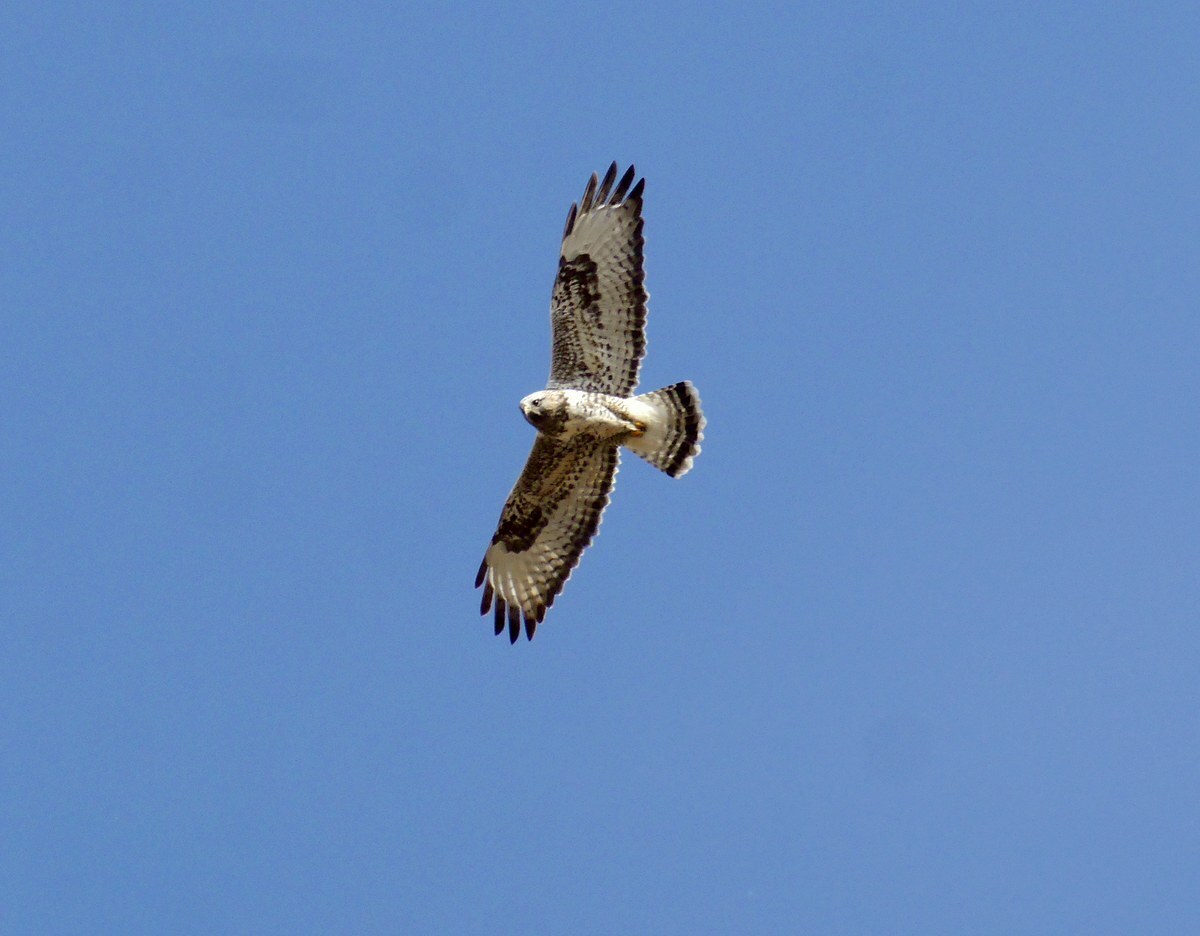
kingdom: Animalia
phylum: Chordata
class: Aves
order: Accipitriformes
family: Accipitridae
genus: Buteo
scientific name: Buteo lagopus
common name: Rough-legged buzzard
